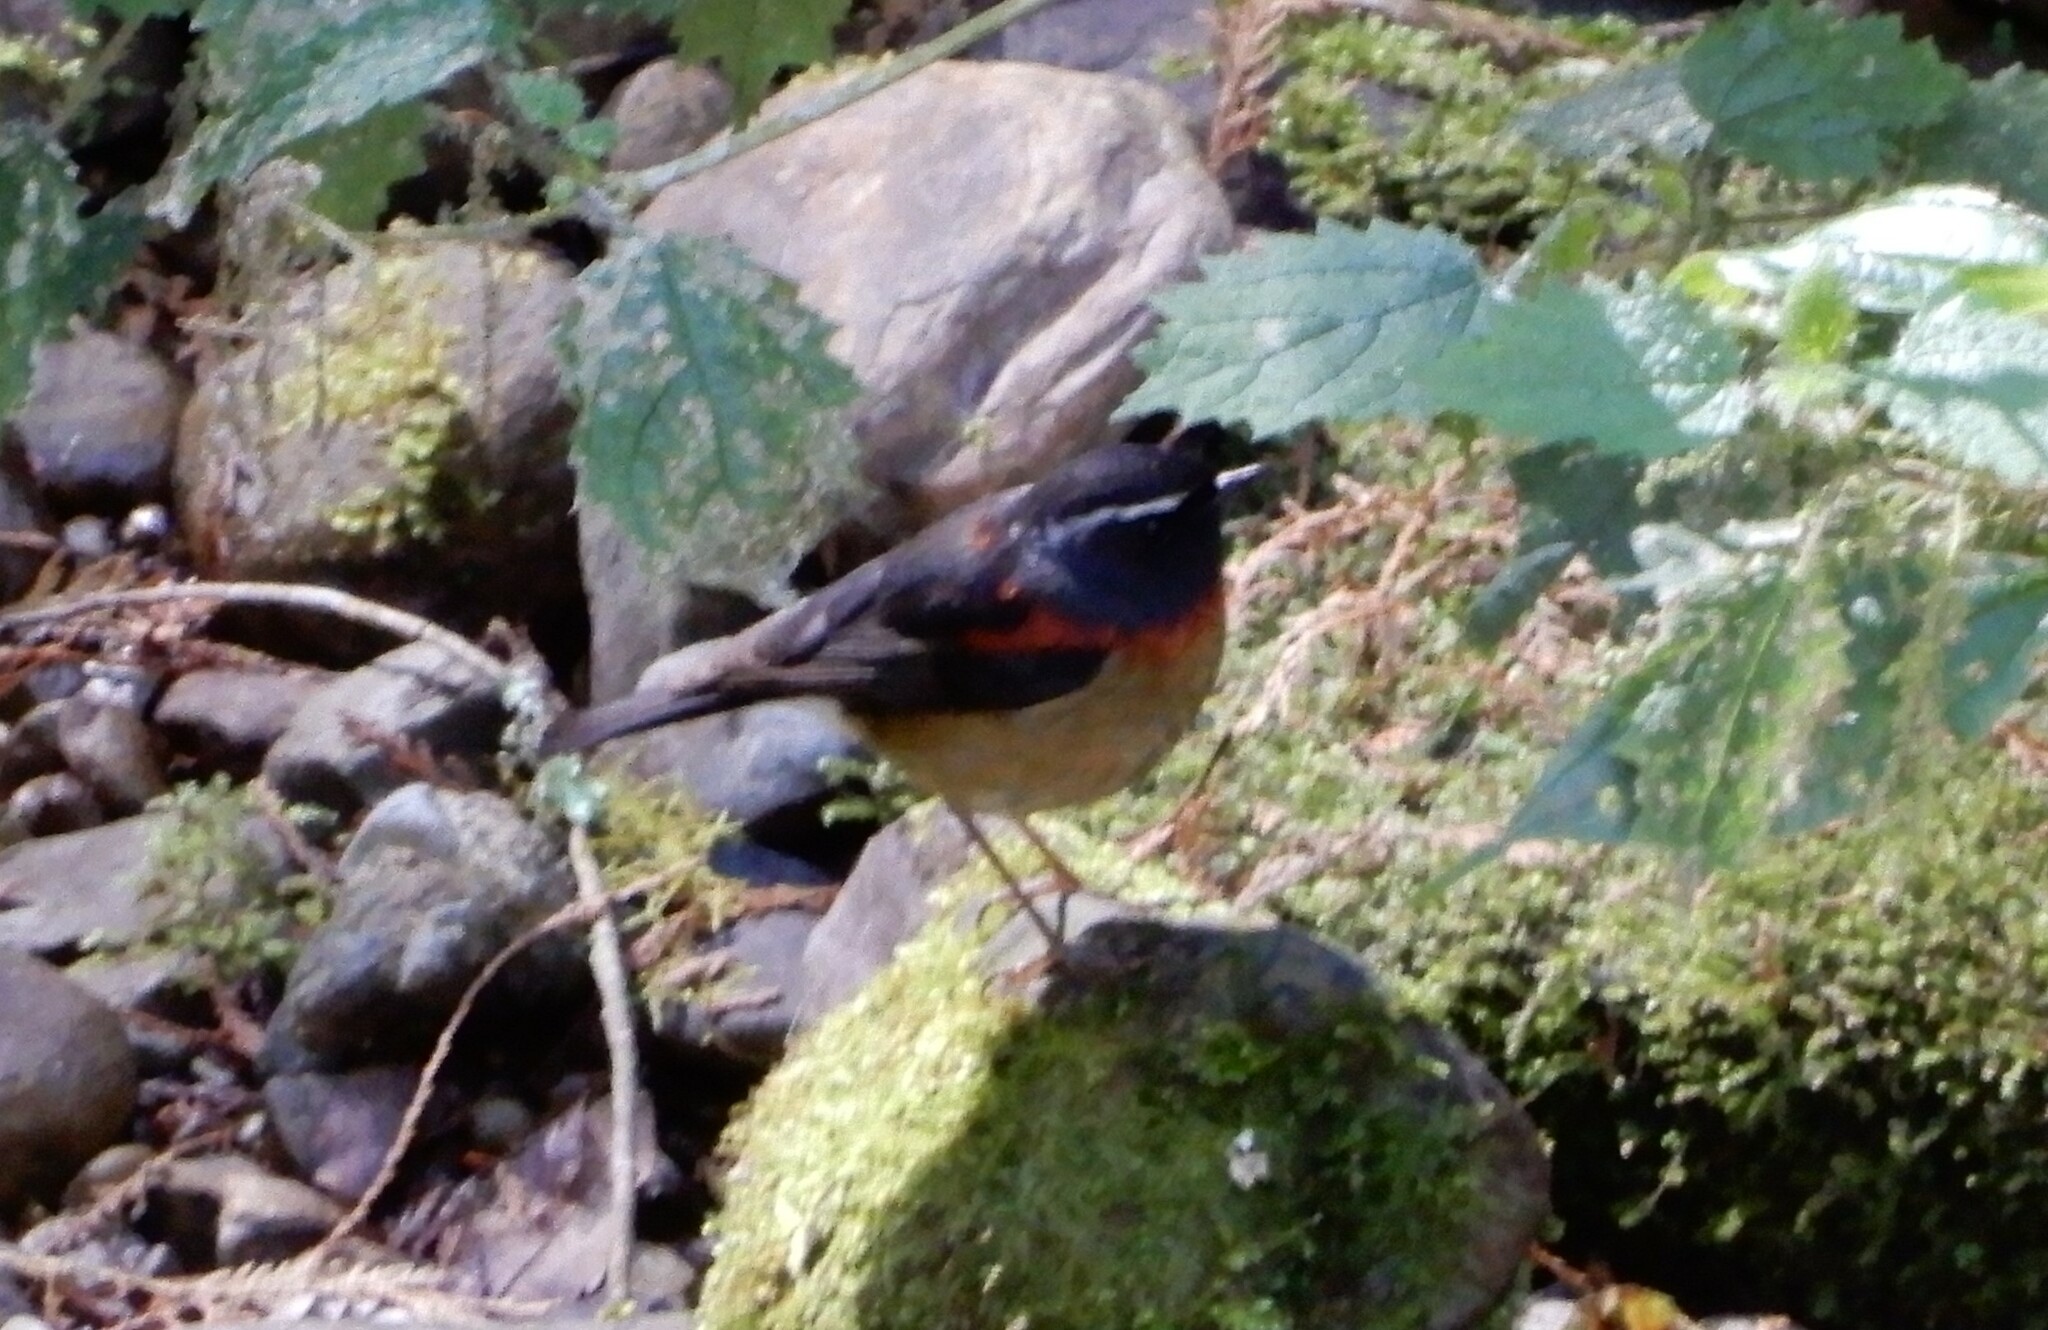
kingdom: Animalia
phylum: Chordata
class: Aves
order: Passeriformes
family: Muscicapidae
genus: Tarsiger
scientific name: Tarsiger johnstoniae
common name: Collared bush robin
